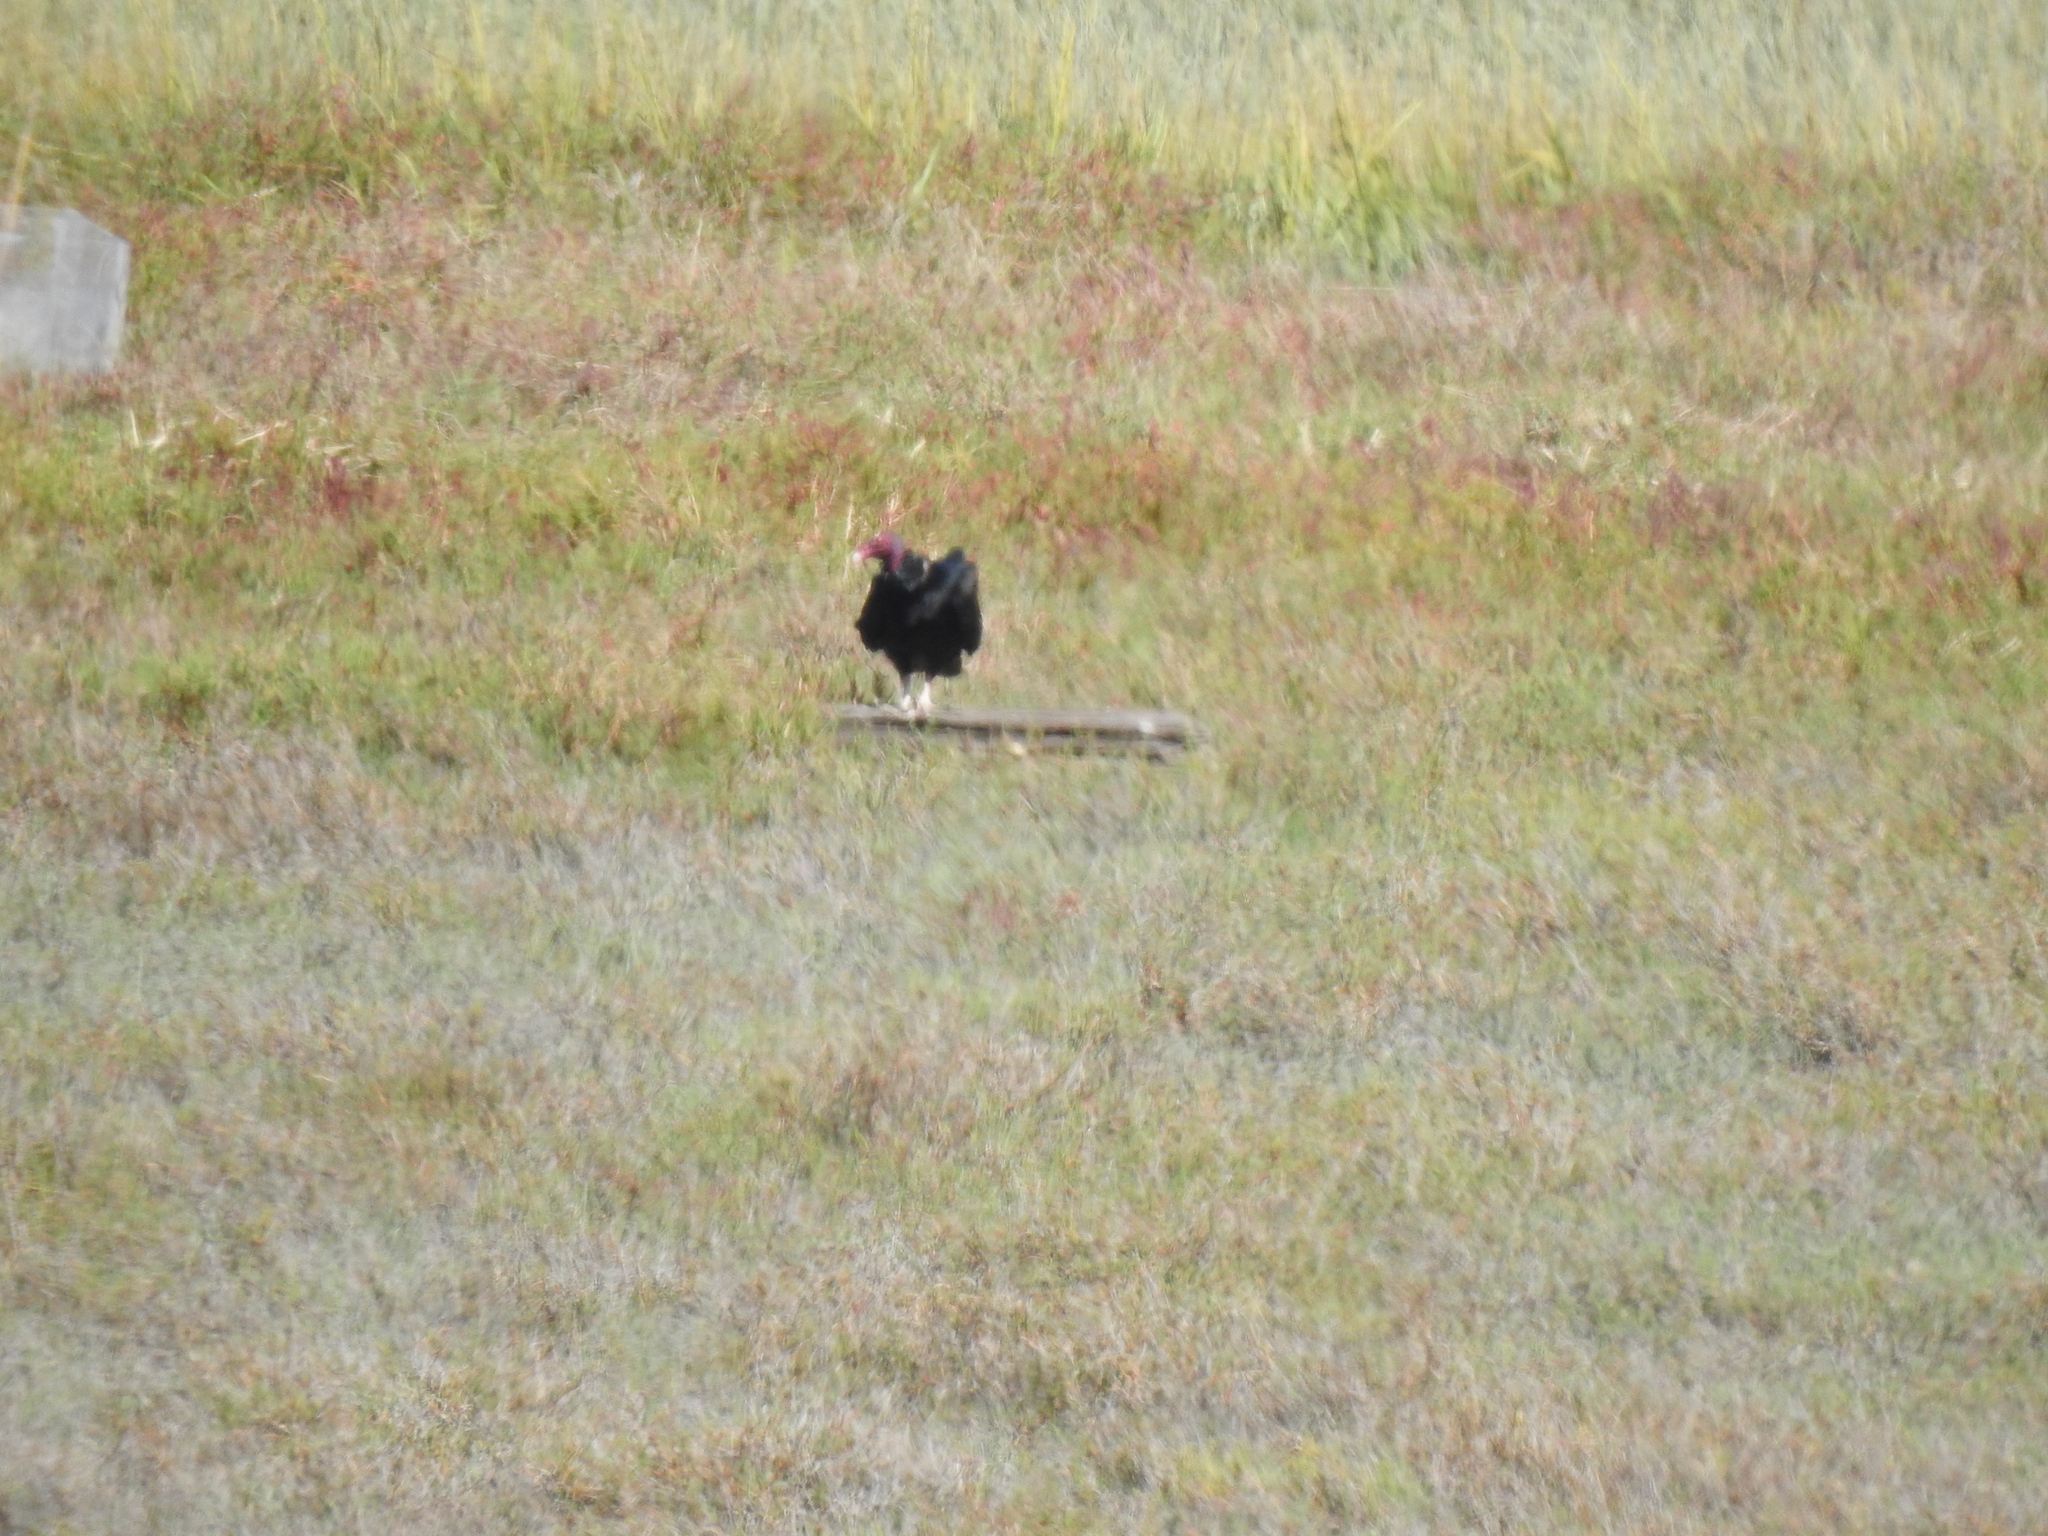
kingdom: Animalia
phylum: Chordata
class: Aves
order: Accipitriformes
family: Cathartidae
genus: Cathartes
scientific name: Cathartes aura
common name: Turkey vulture
